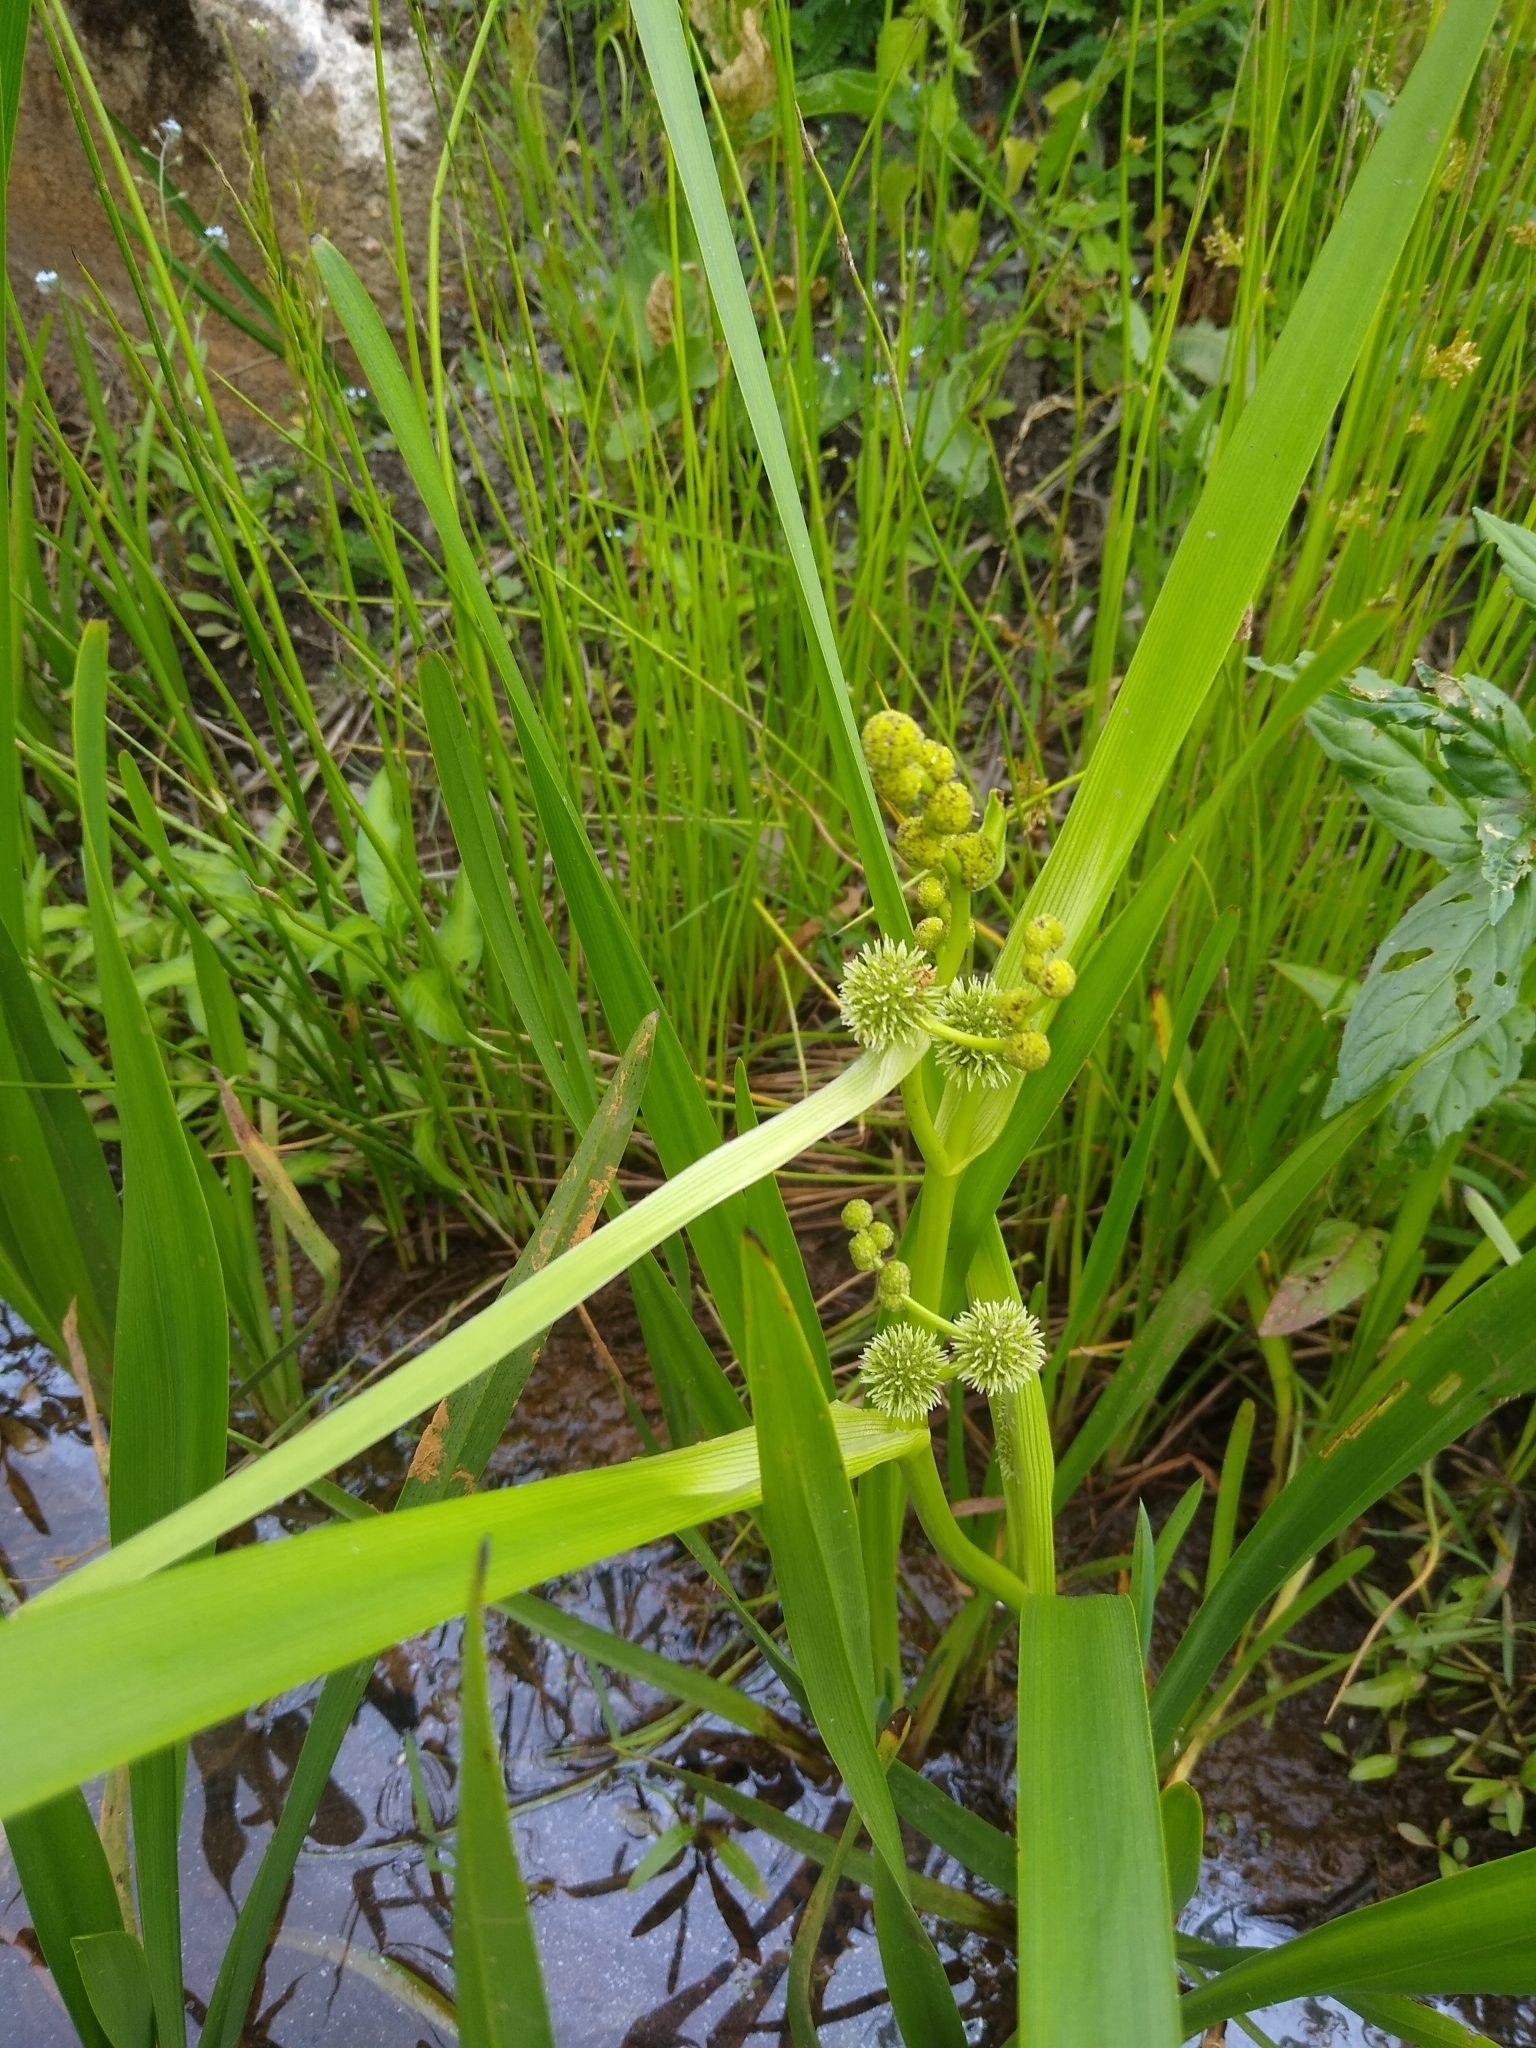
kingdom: Plantae
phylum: Tracheophyta
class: Liliopsida
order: Poales
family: Typhaceae
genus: Sparganium
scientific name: Sparganium erectum
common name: Branched bur-reed
